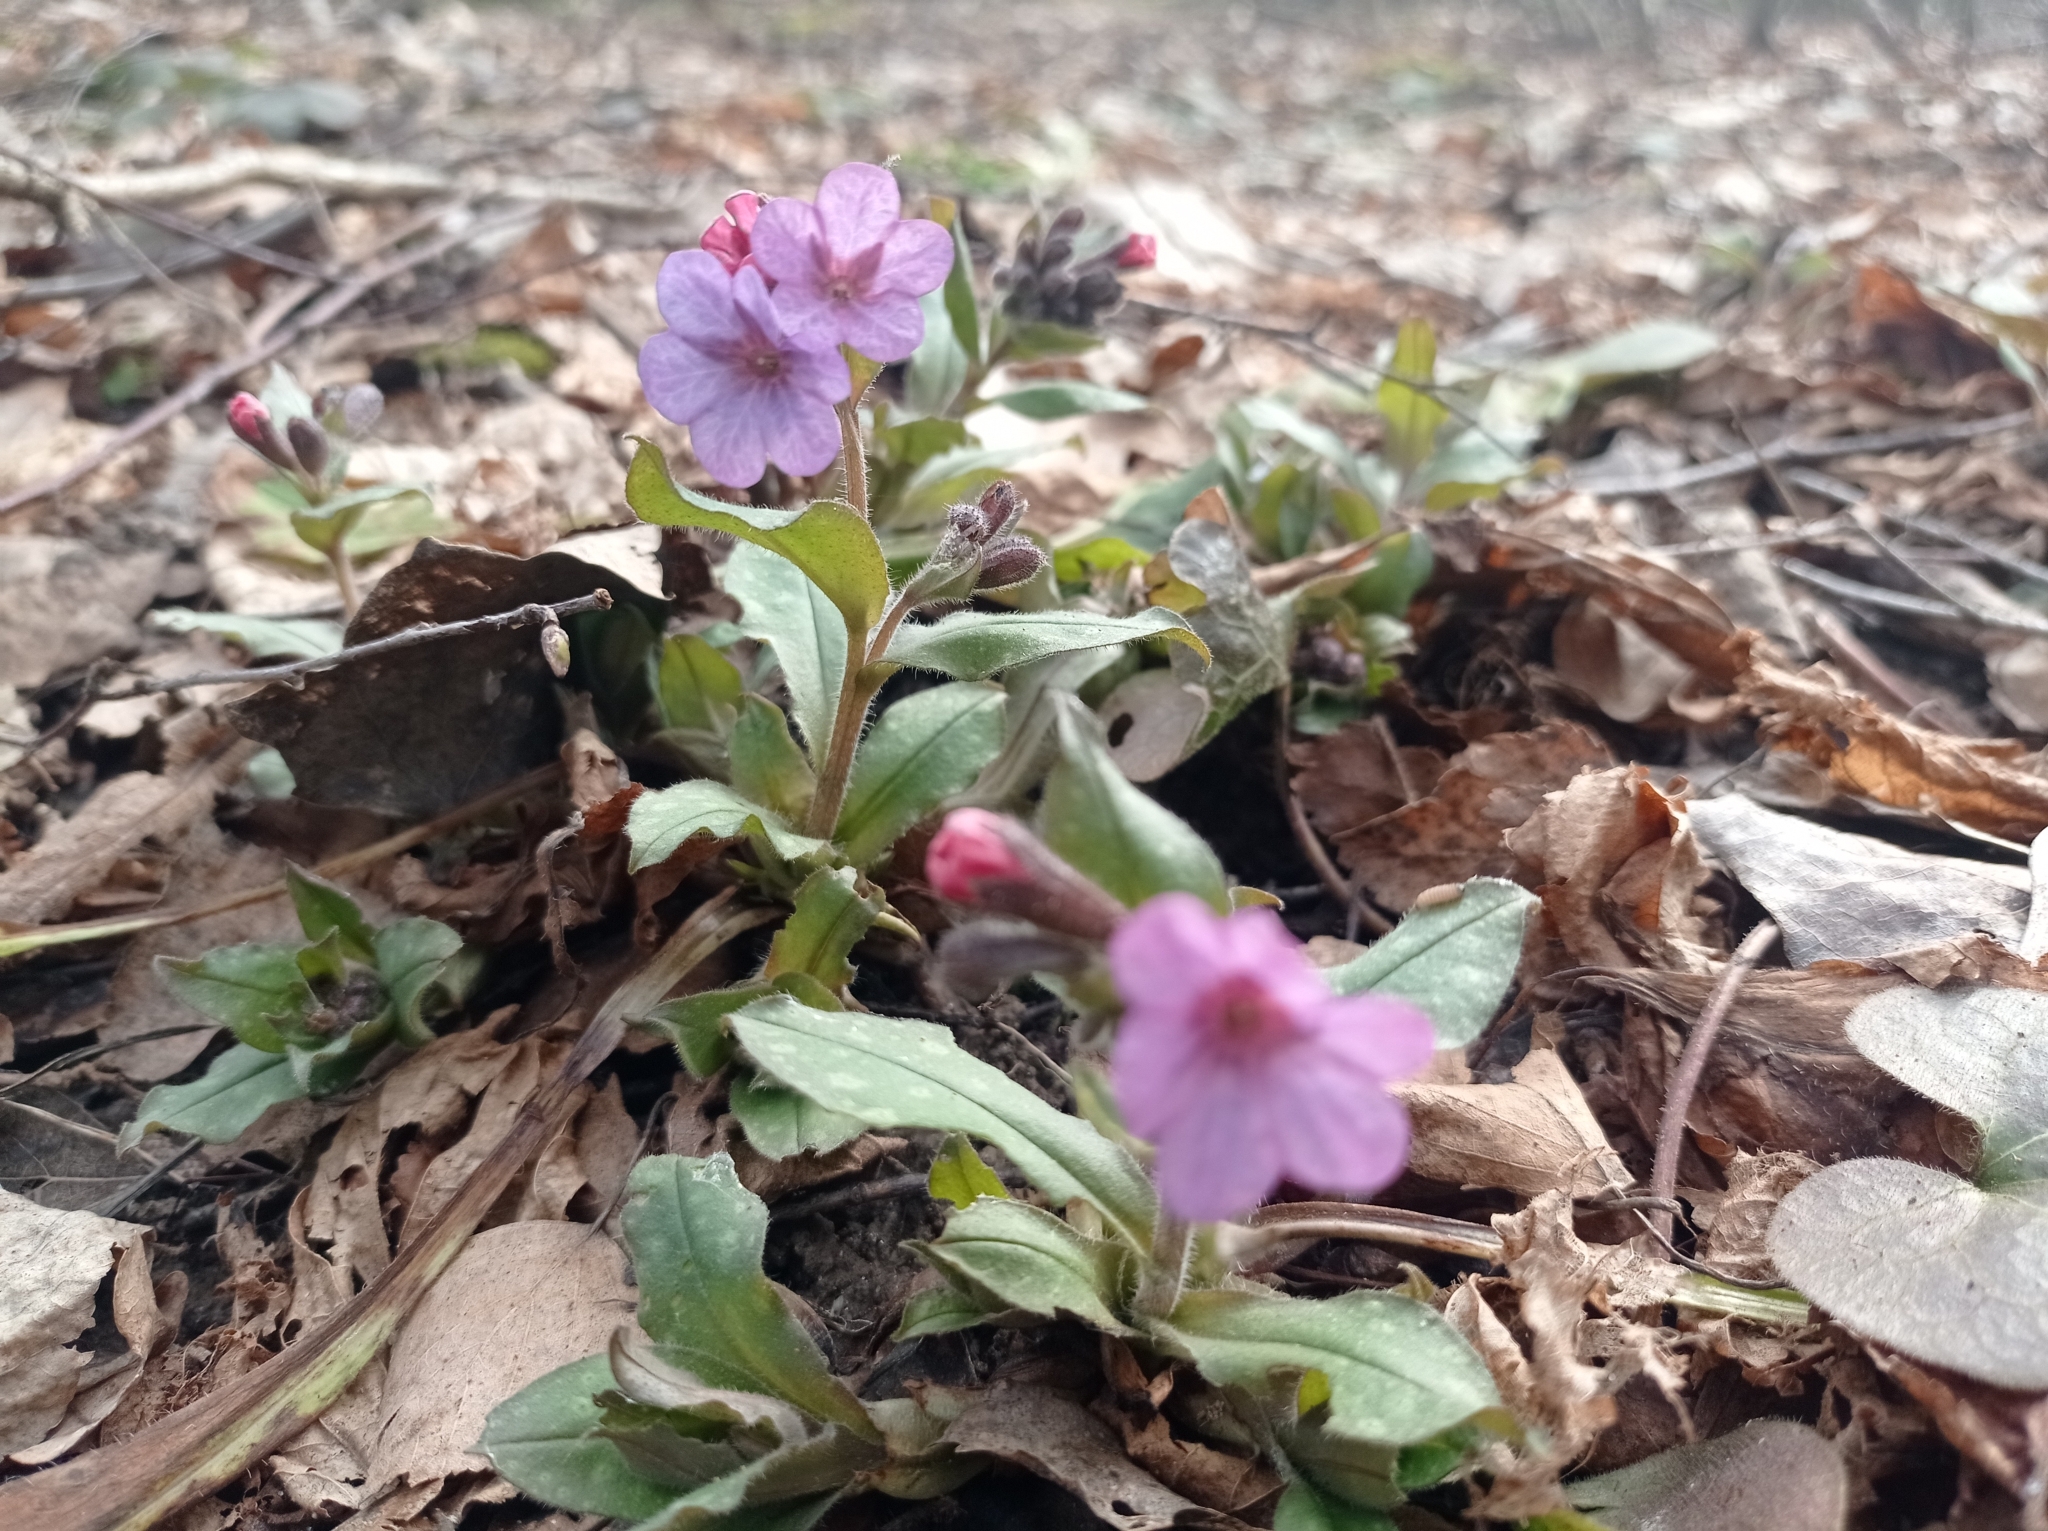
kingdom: Plantae
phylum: Tracheophyta
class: Magnoliopsida
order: Boraginales
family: Boraginaceae
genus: Pulmonaria
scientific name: Pulmonaria obscura
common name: Suffolk lungwort
